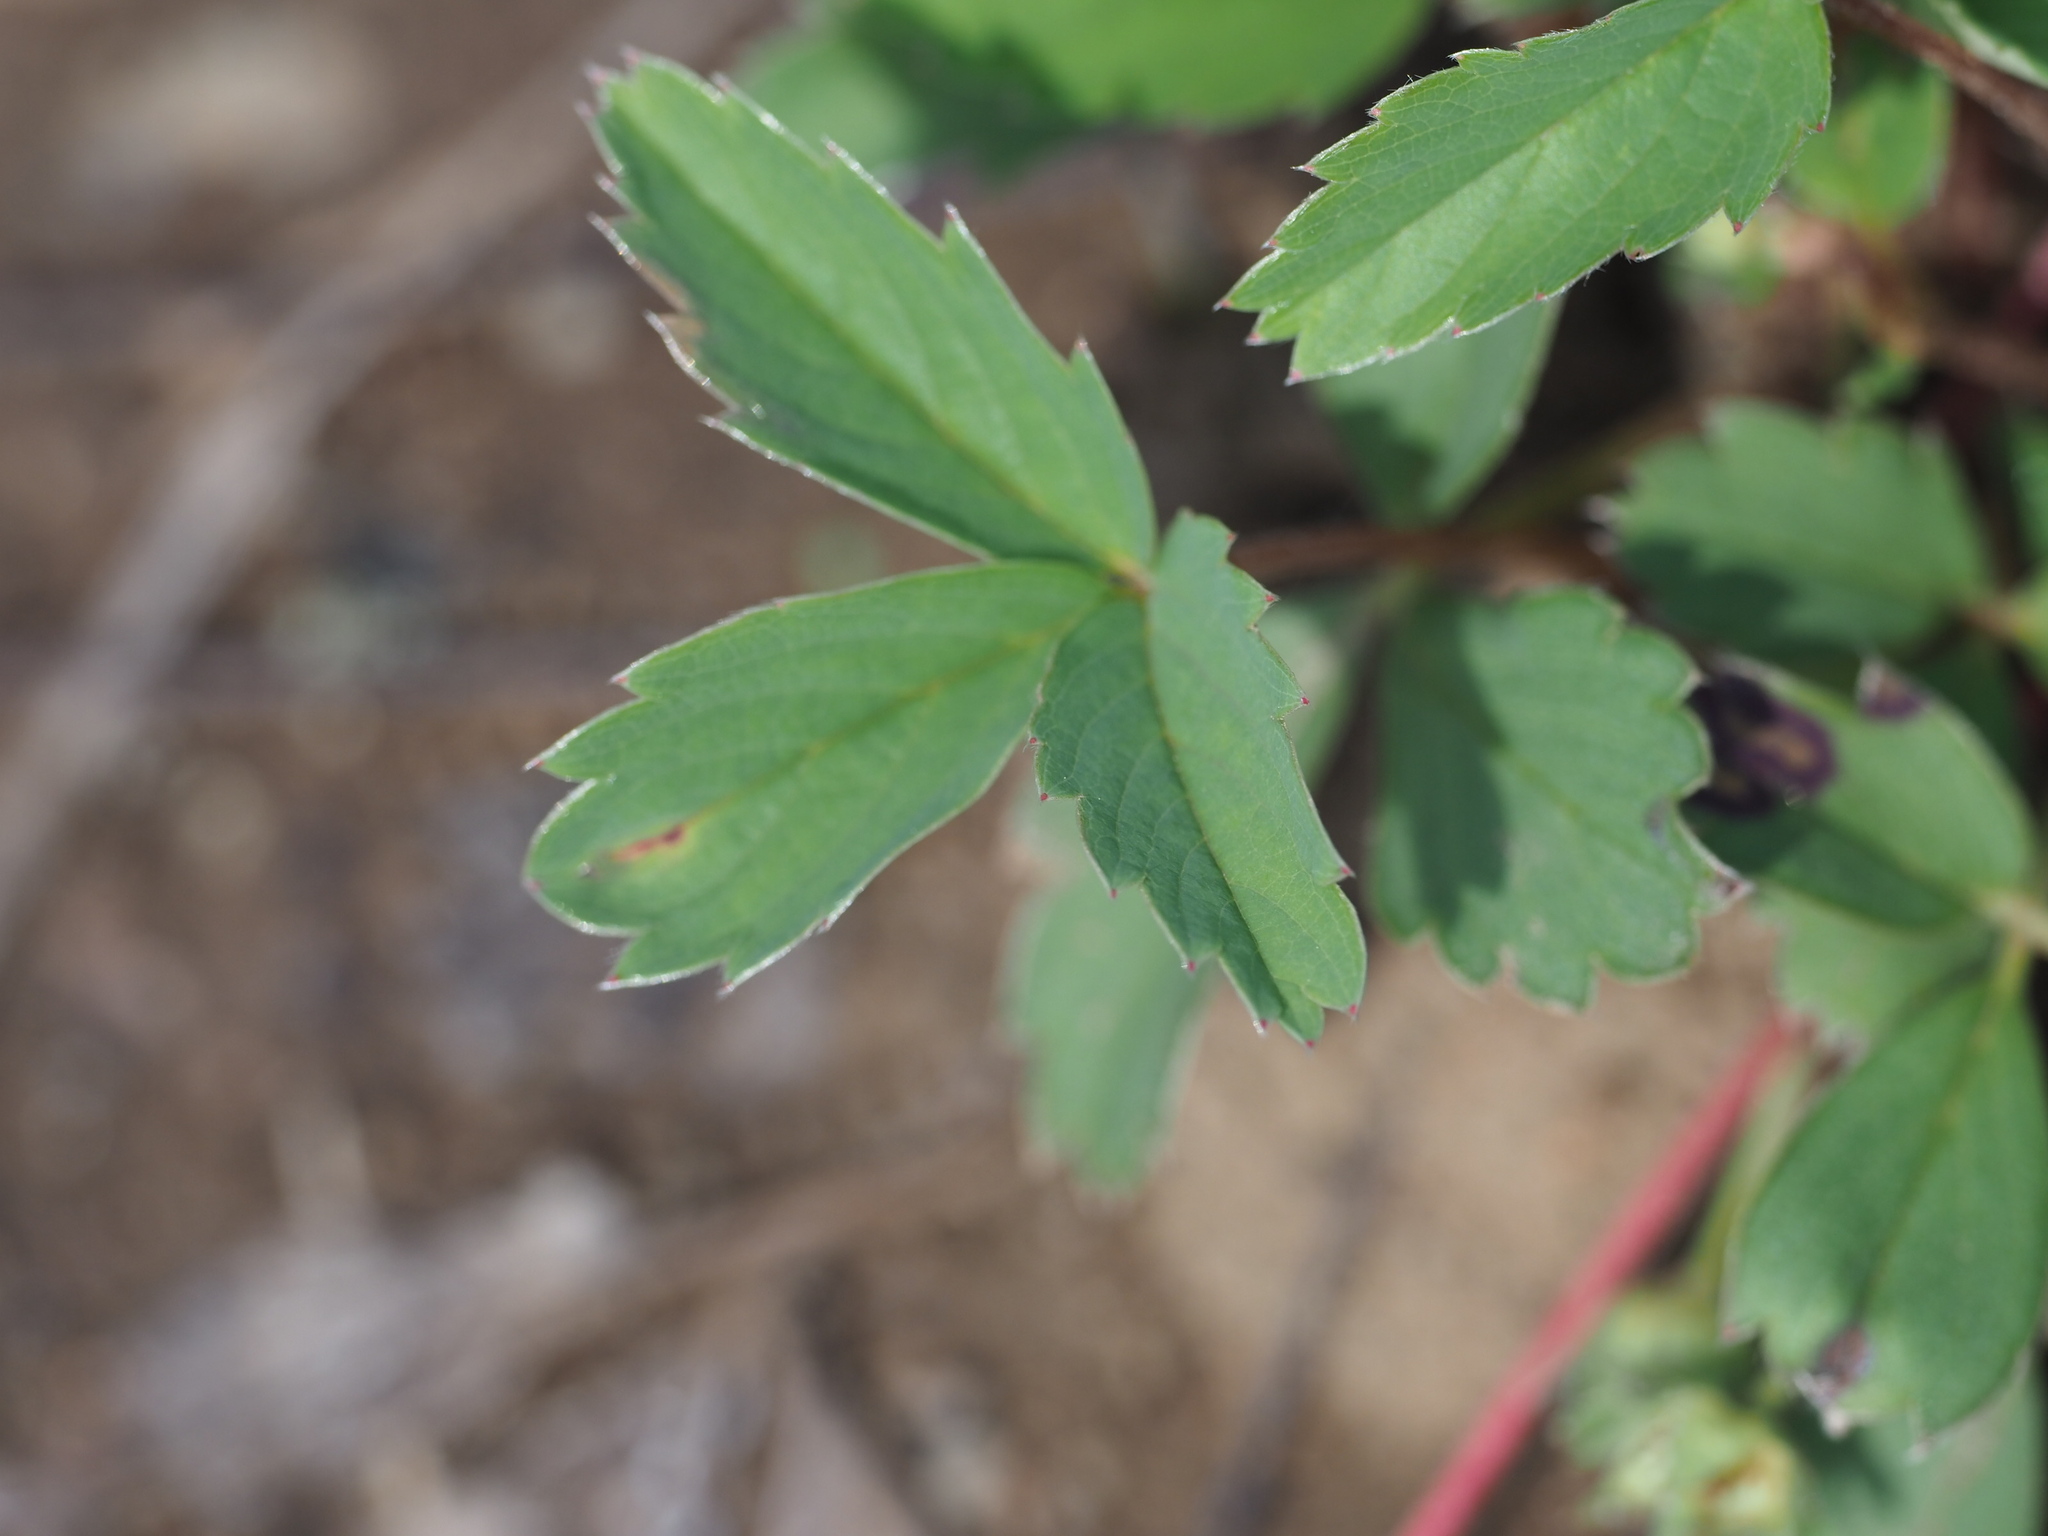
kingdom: Plantae
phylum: Tracheophyta
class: Magnoliopsida
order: Rosales
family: Rosaceae
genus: Fragaria
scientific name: Fragaria virginiana
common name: Thickleaved wild strawberry
